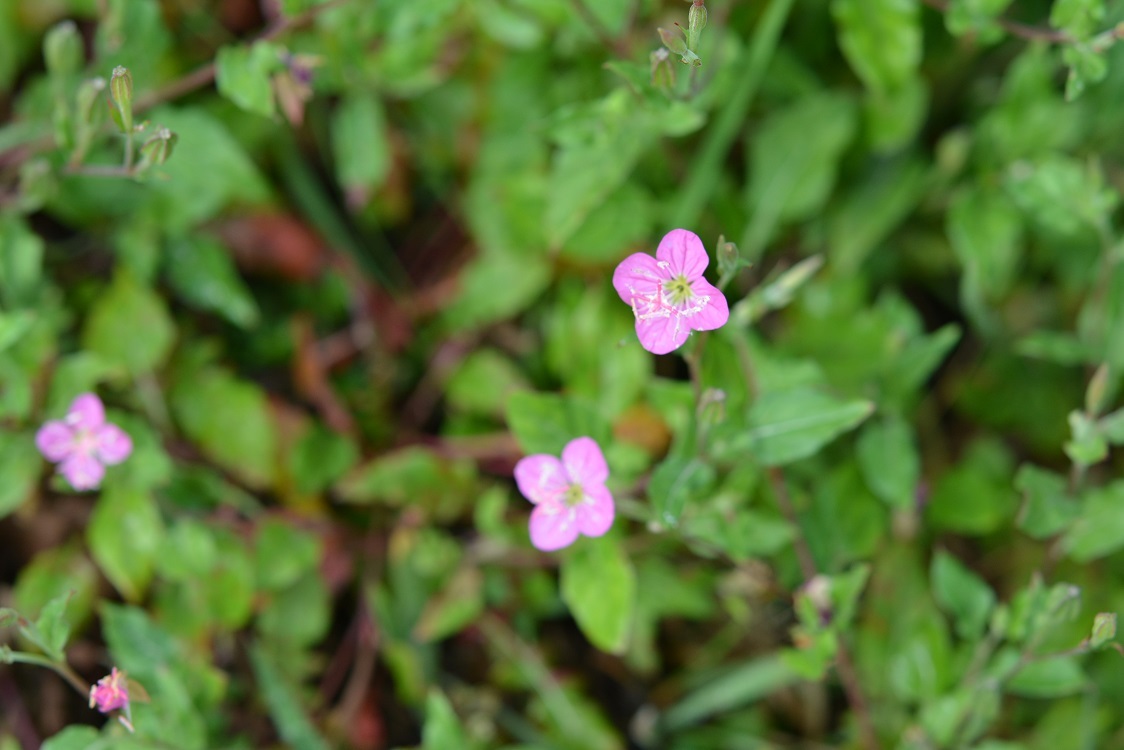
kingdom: Plantae
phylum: Tracheophyta
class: Magnoliopsida
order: Myrtales
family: Onagraceae
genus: Oenothera
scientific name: Oenothera rosea
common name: Rosy evening-primrose
